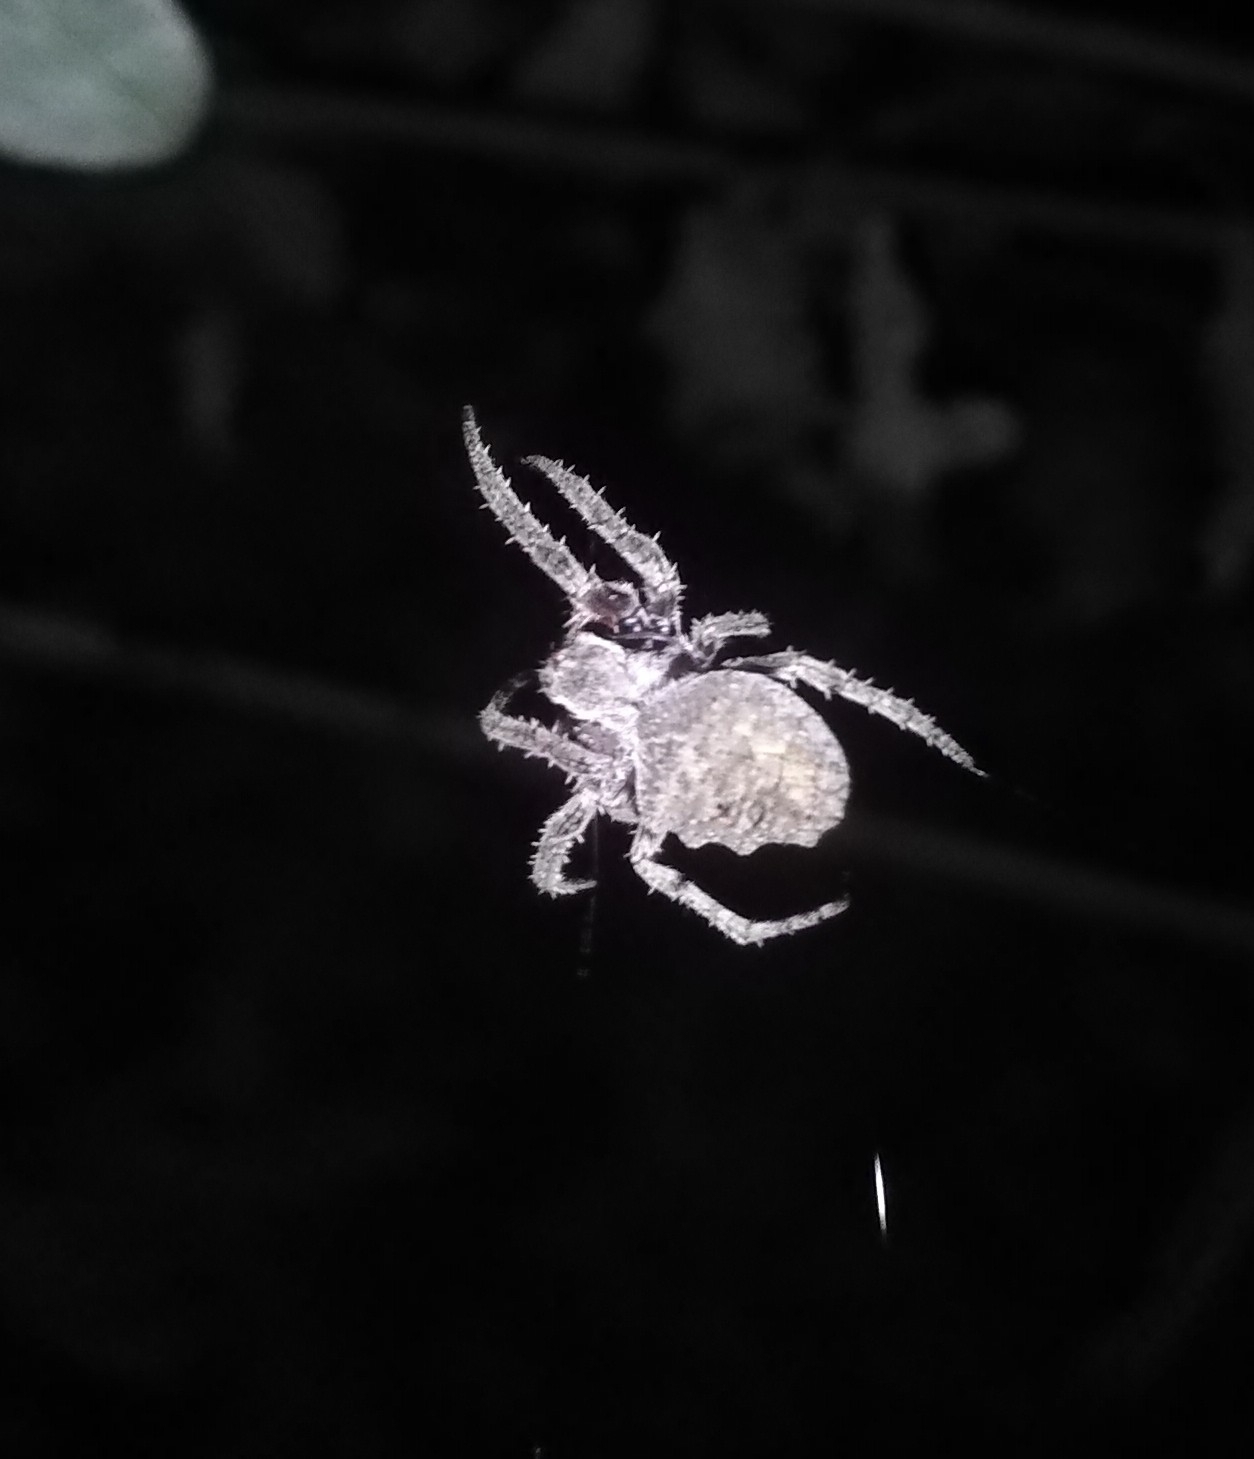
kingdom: Animalia
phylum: Arthropoda
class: Arachnida
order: Araneae
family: Araneidae
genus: Parawixia
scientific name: Parawixia audax
